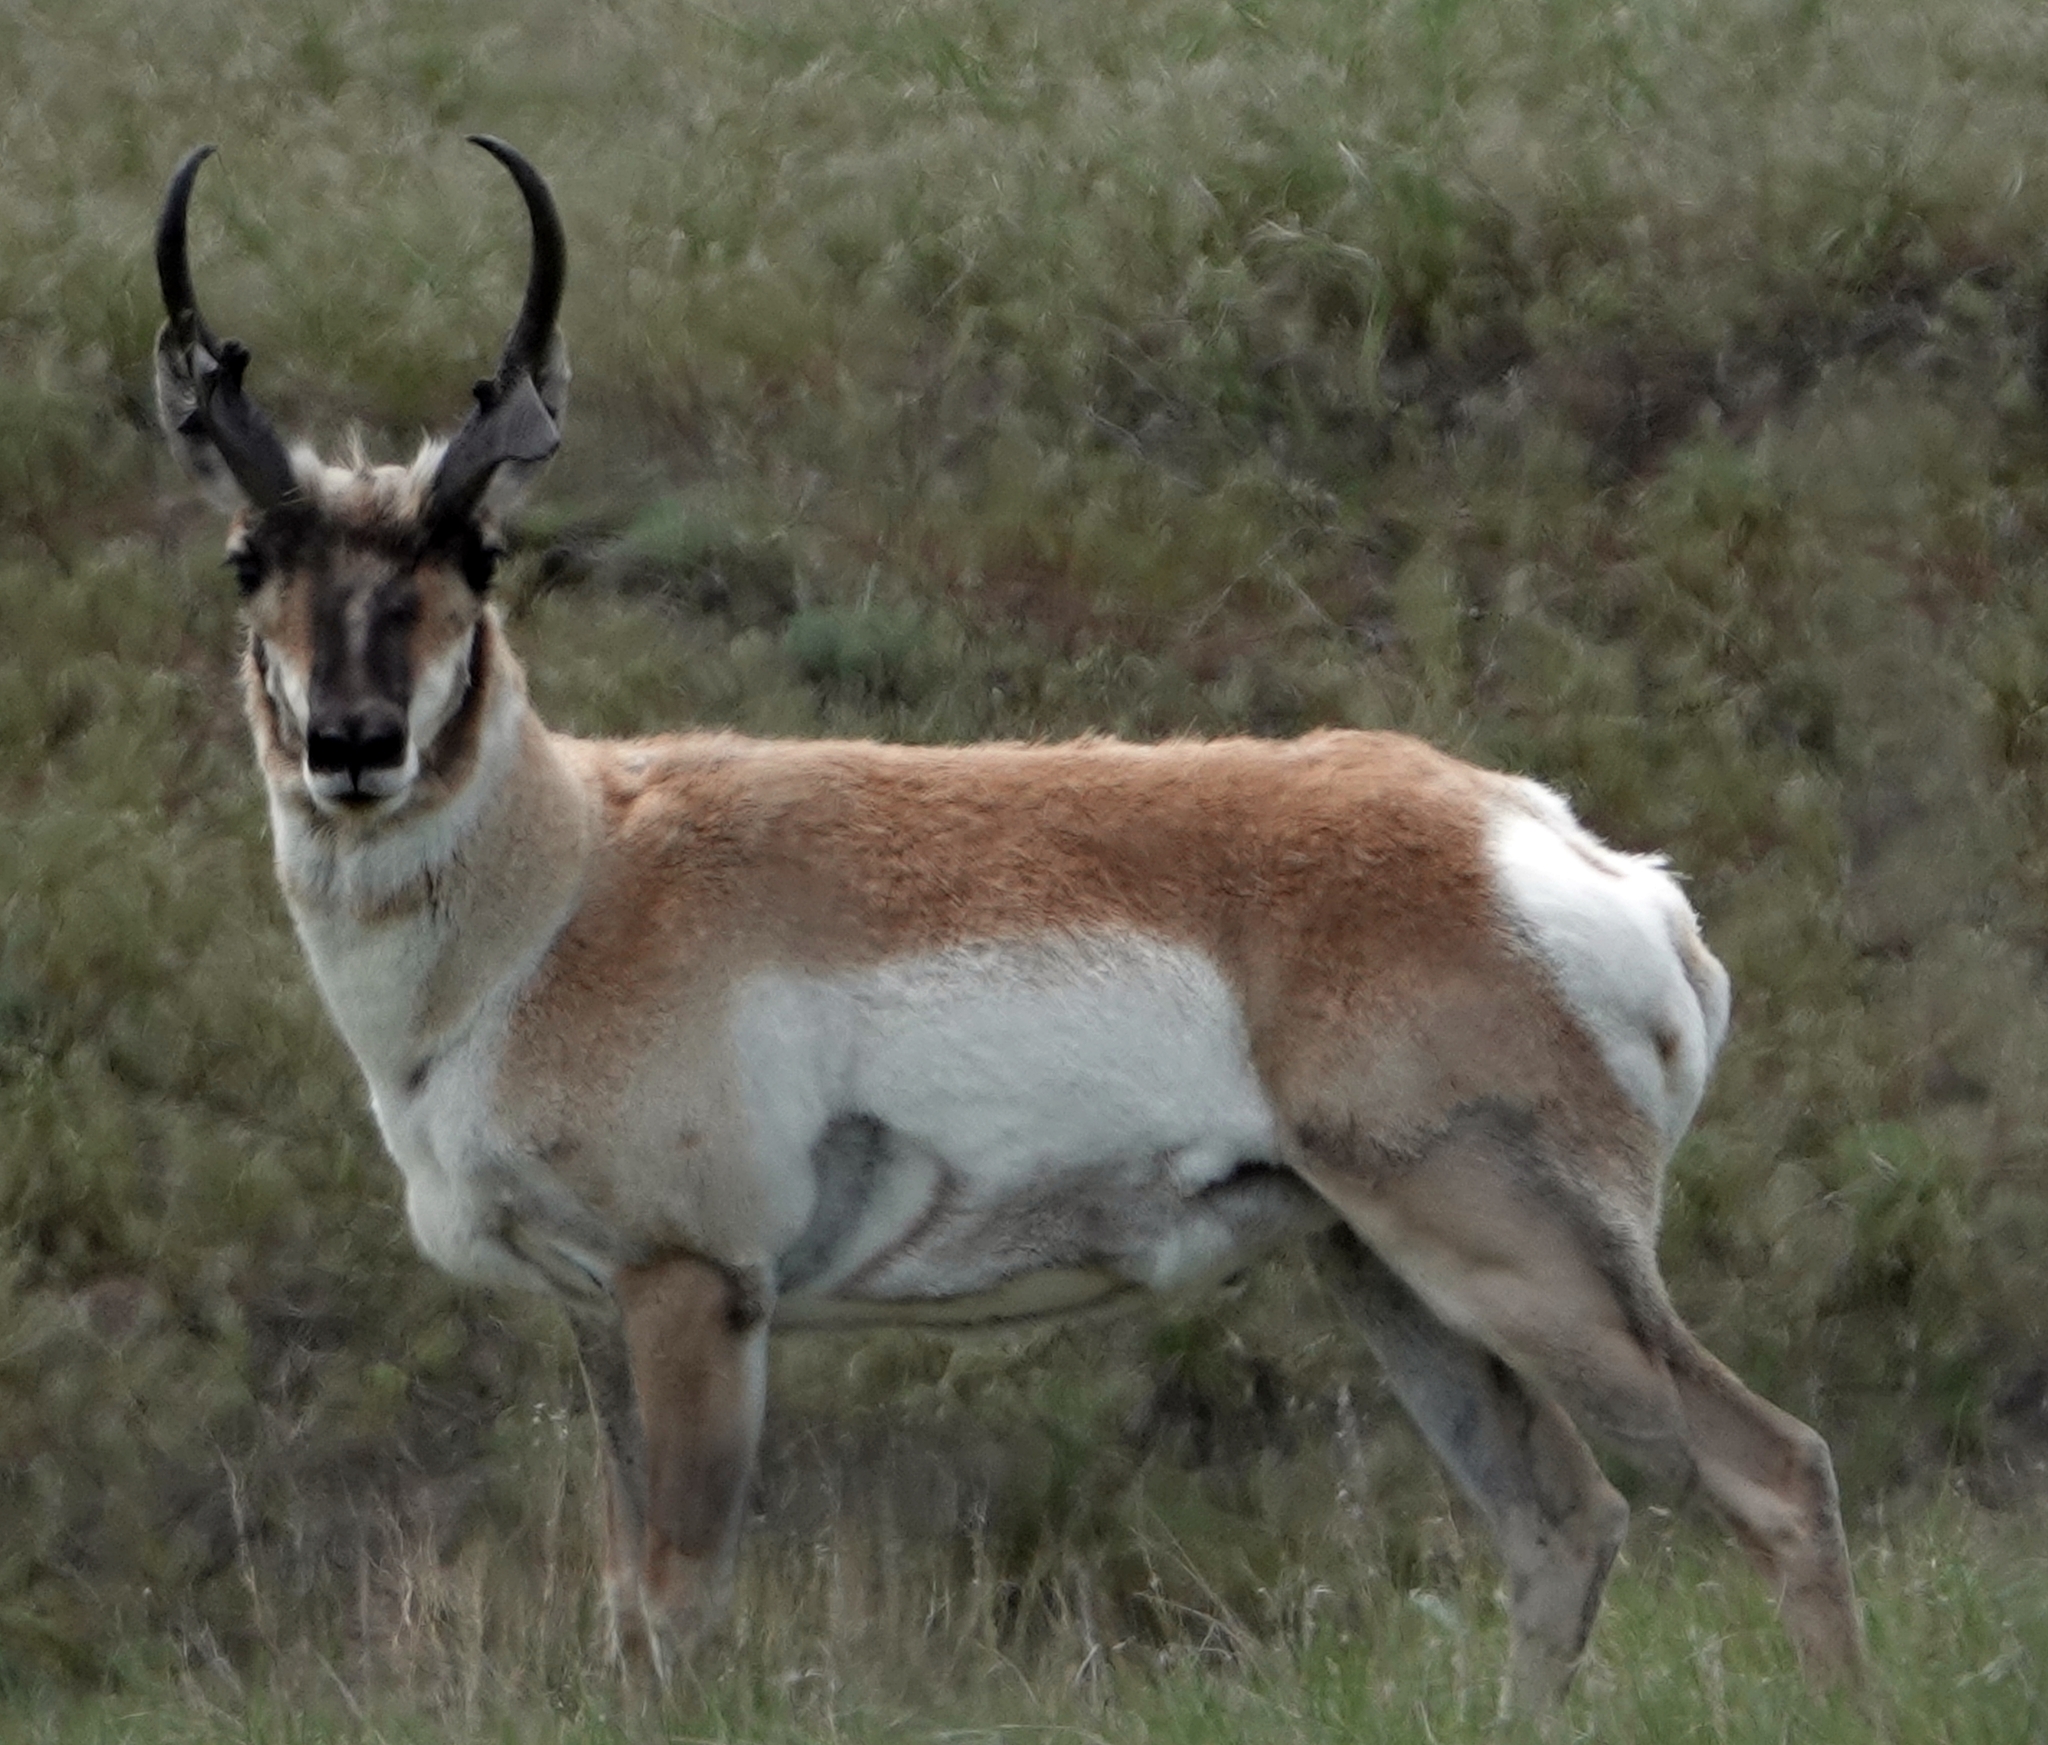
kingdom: Animalia
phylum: Chordata
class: Mammalia
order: Artiodactyla
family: Antilocapridae
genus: Antilocapra
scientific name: Antilocapra americana
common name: Pronghorn
